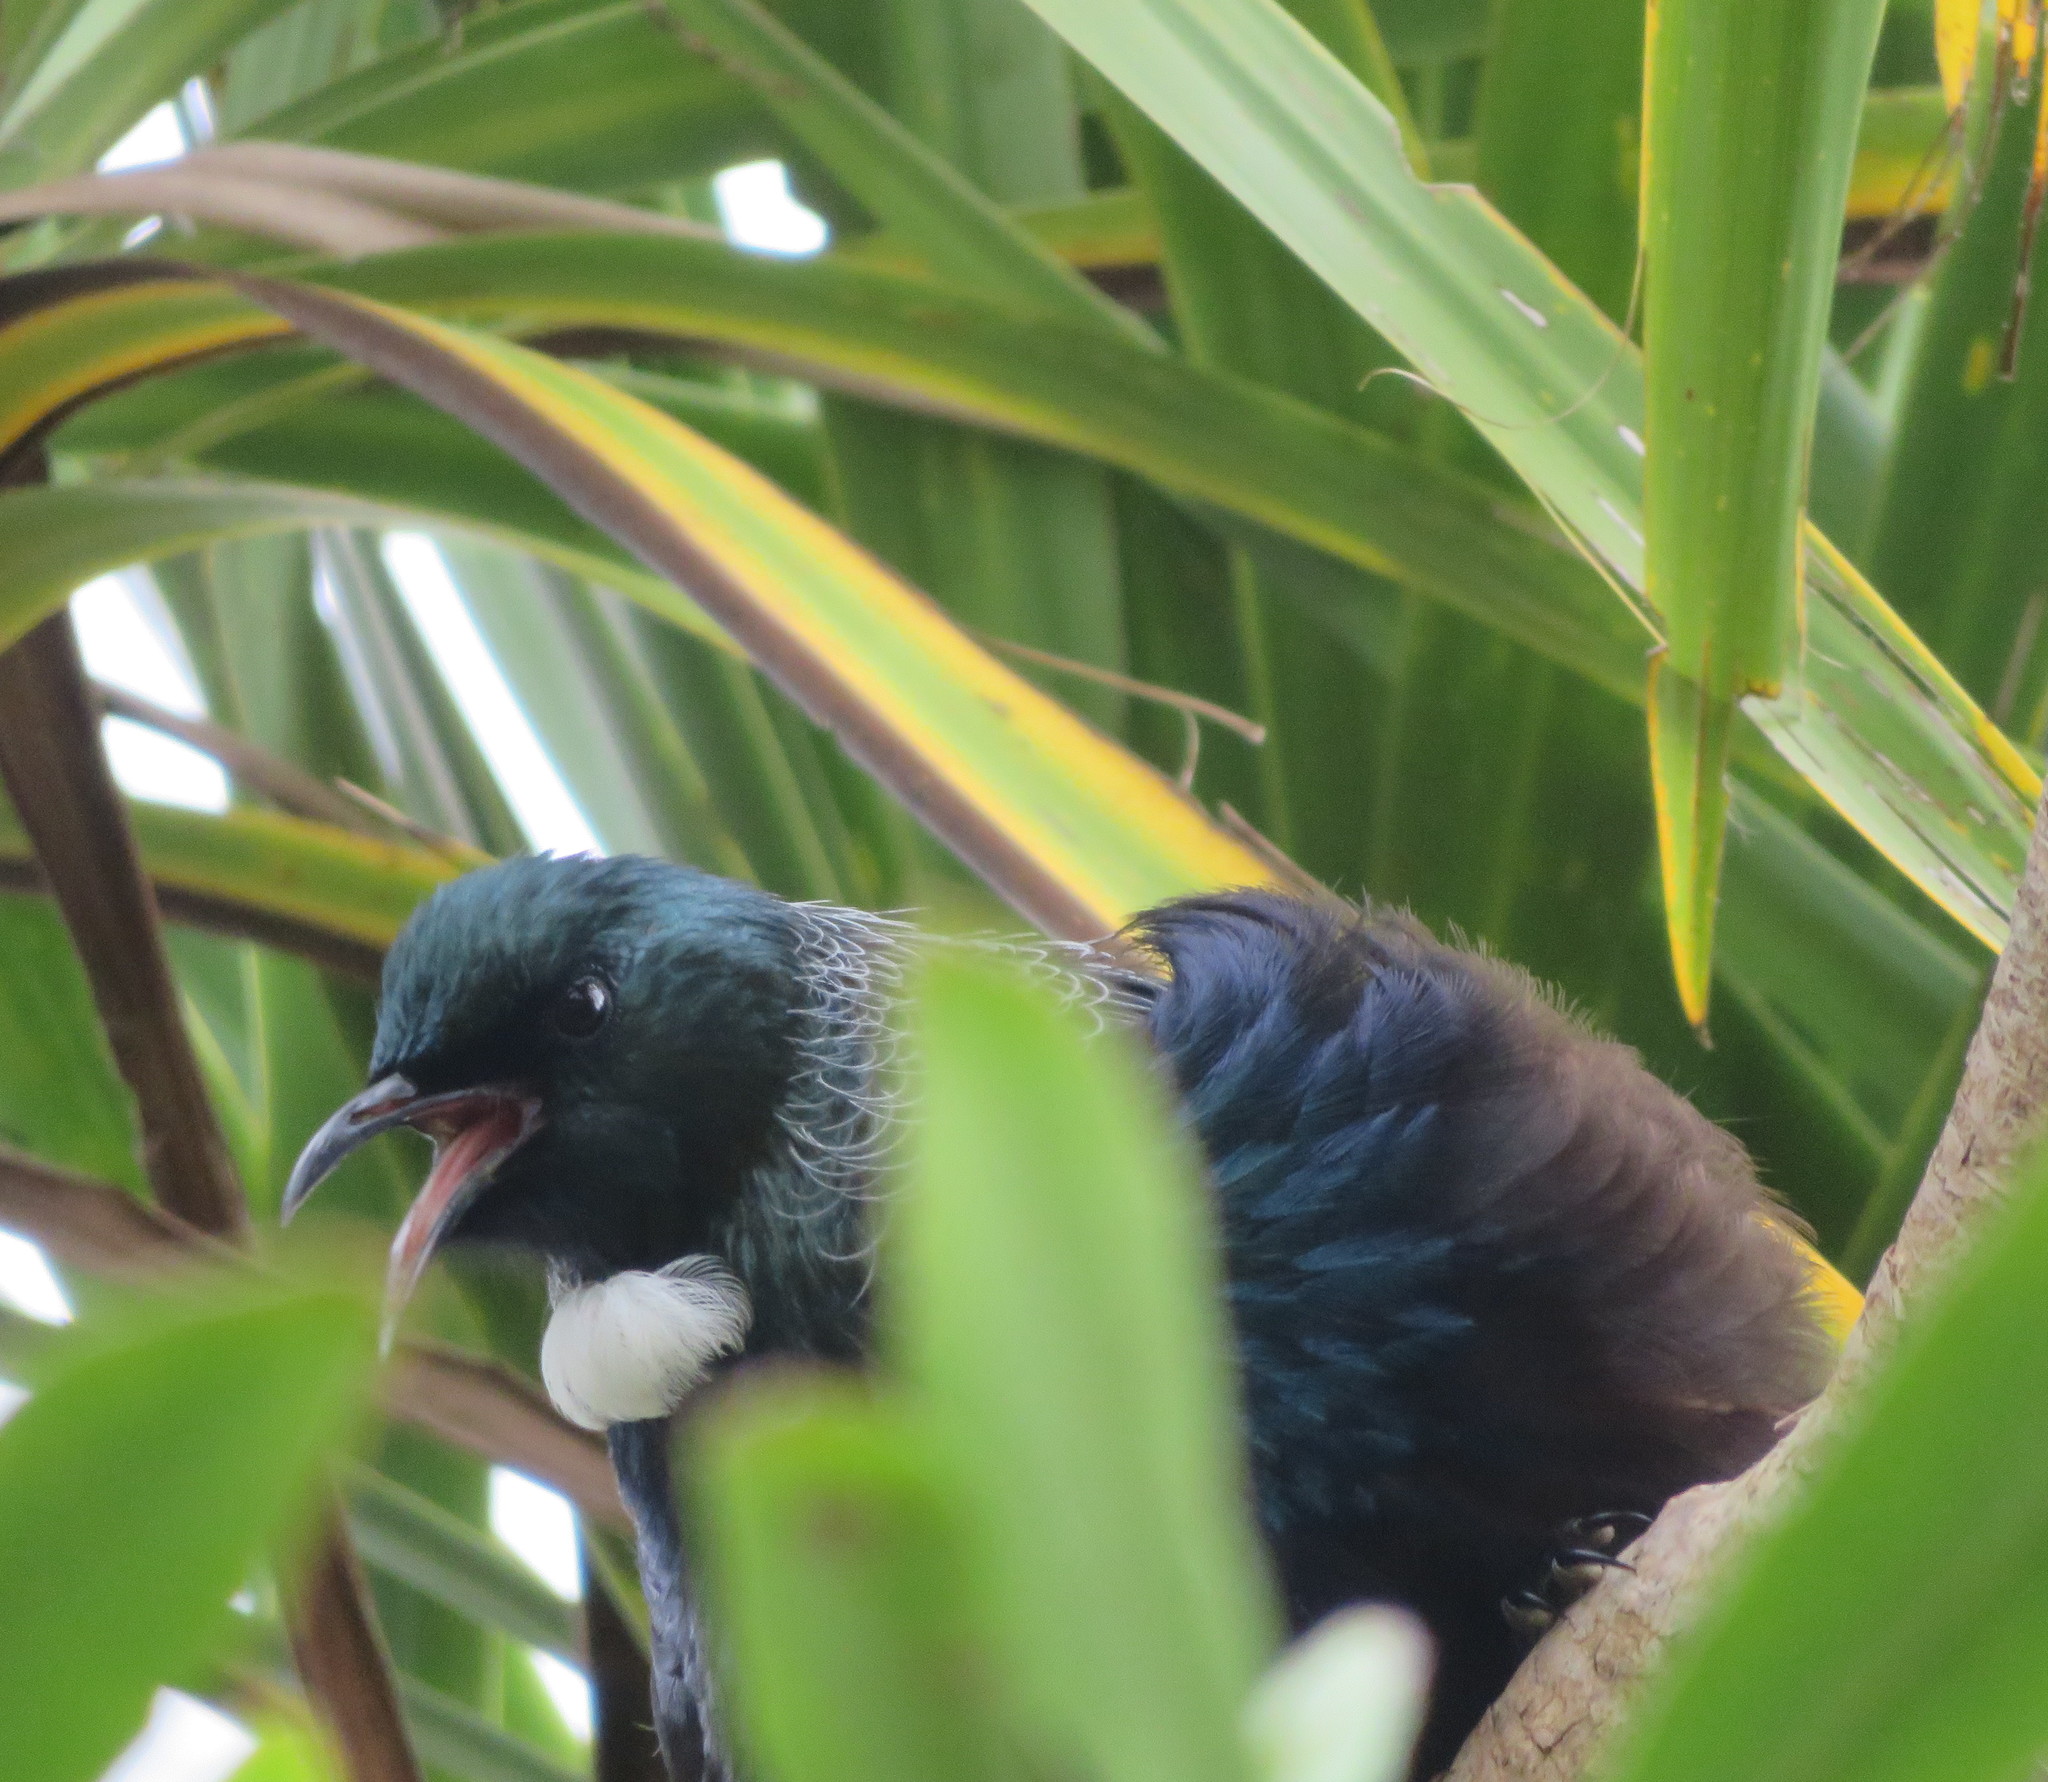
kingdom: Animalia
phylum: Chordata
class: Aves
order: Passeriformes
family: Meliphagidae
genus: Prosthemadera
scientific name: Prosthemadera novaeseelandiae
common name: Tui
